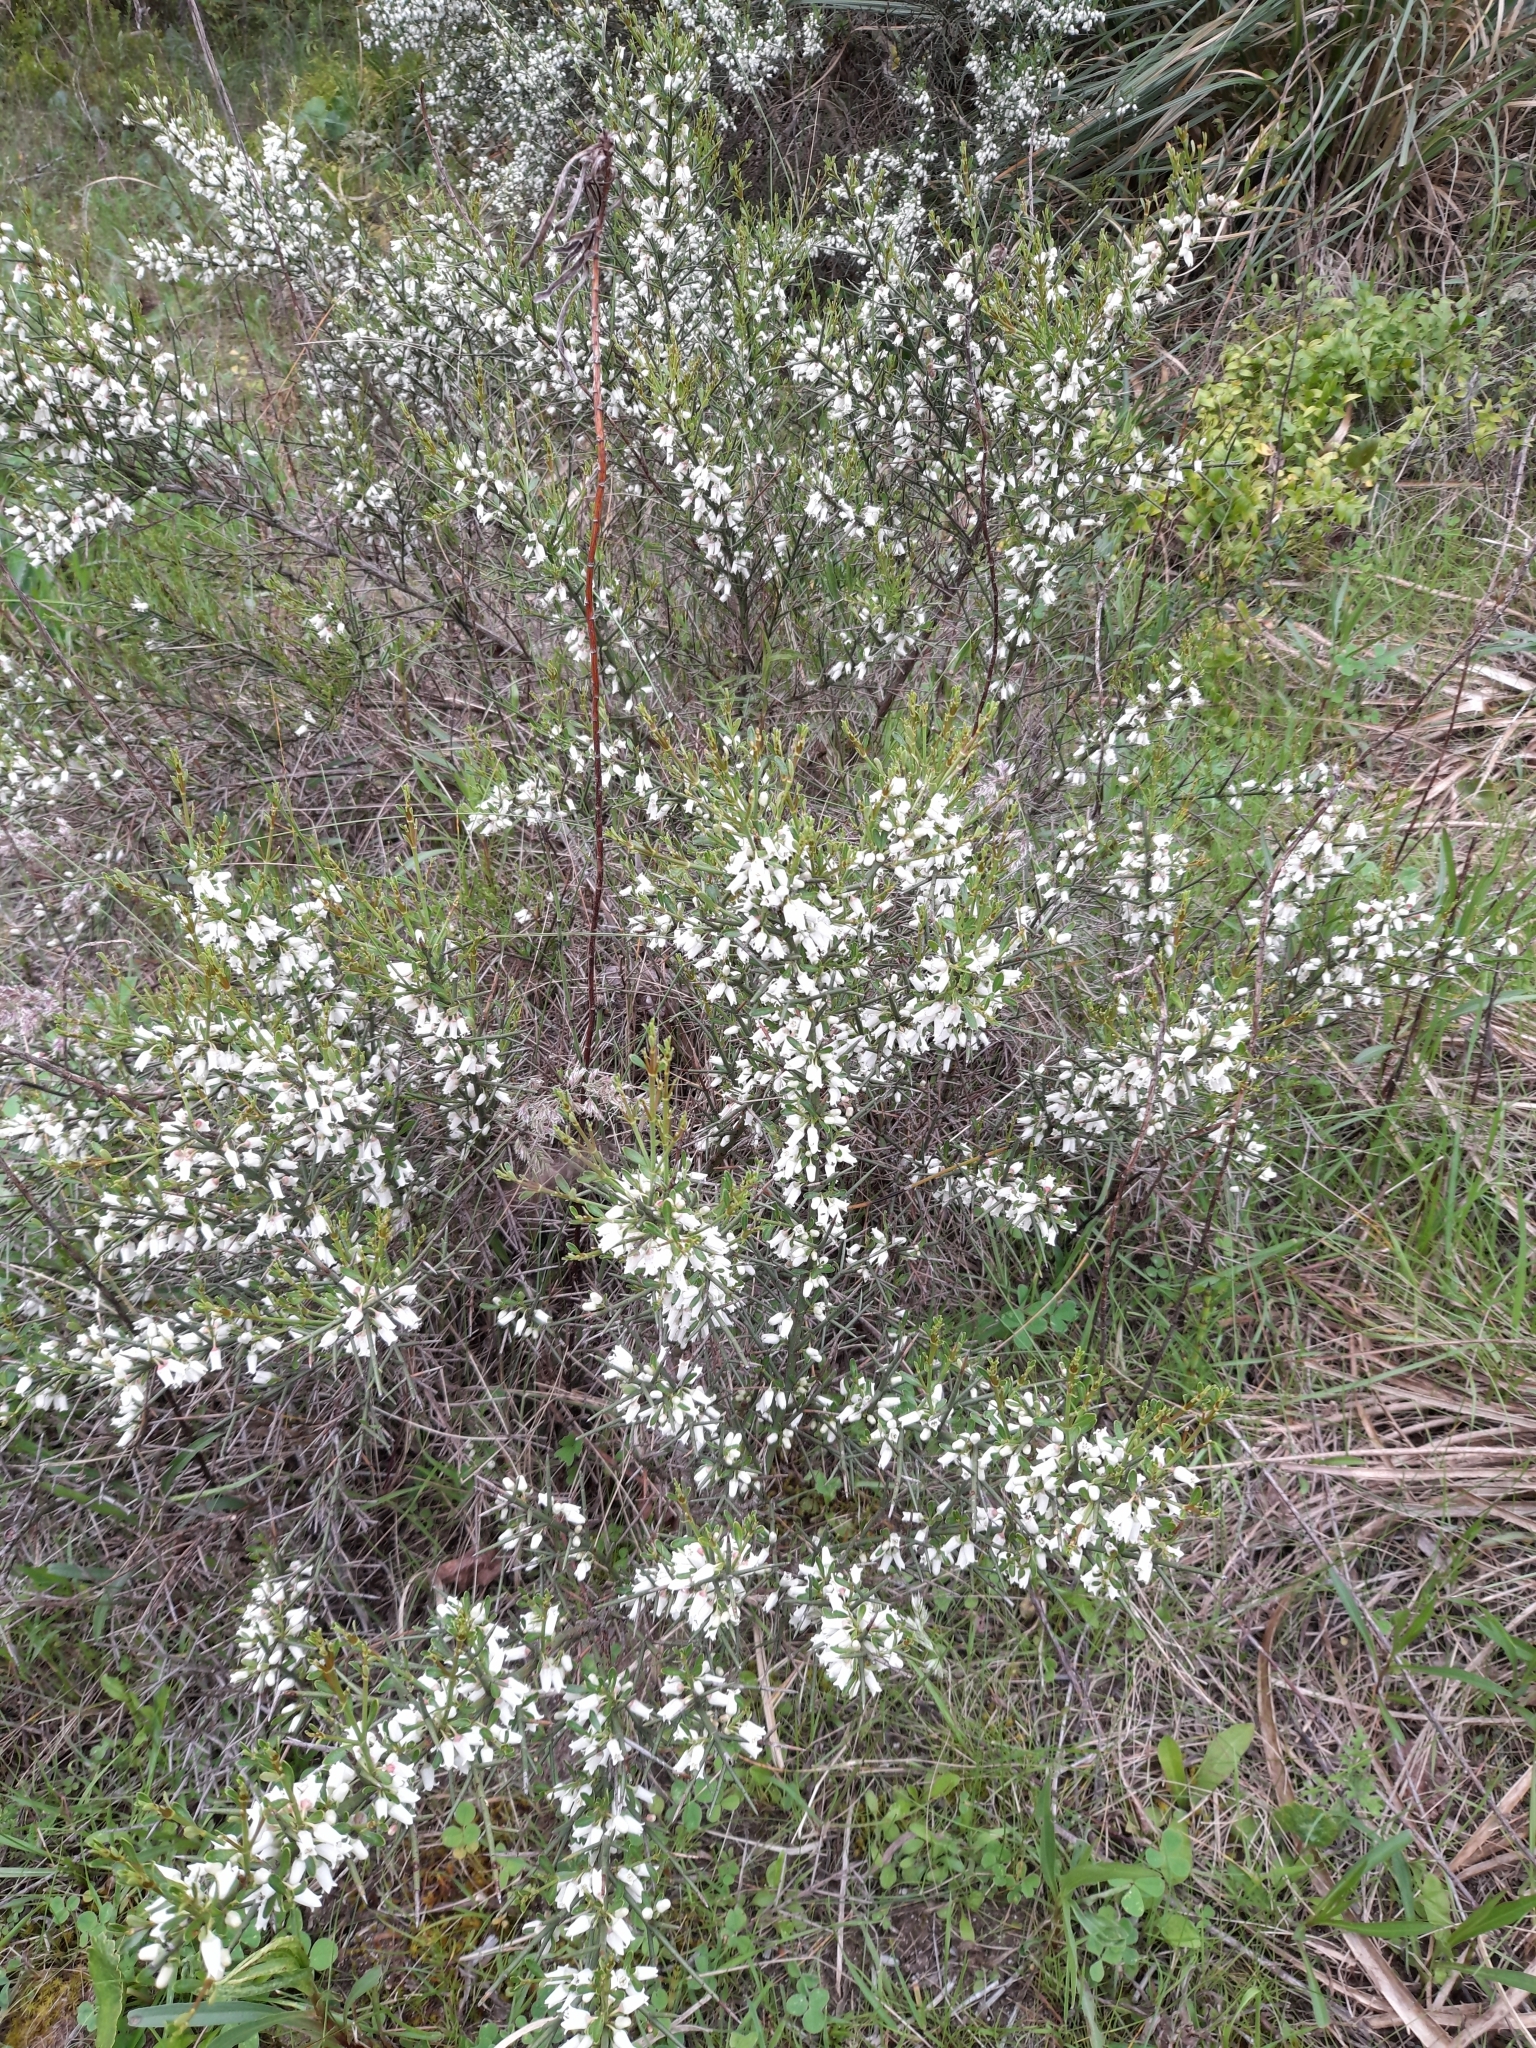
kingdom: Plantae
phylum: Tracheophyta
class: Magnoliopsida
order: Rosales
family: Rhamnaceae
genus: Discaria
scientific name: Discaria americana
